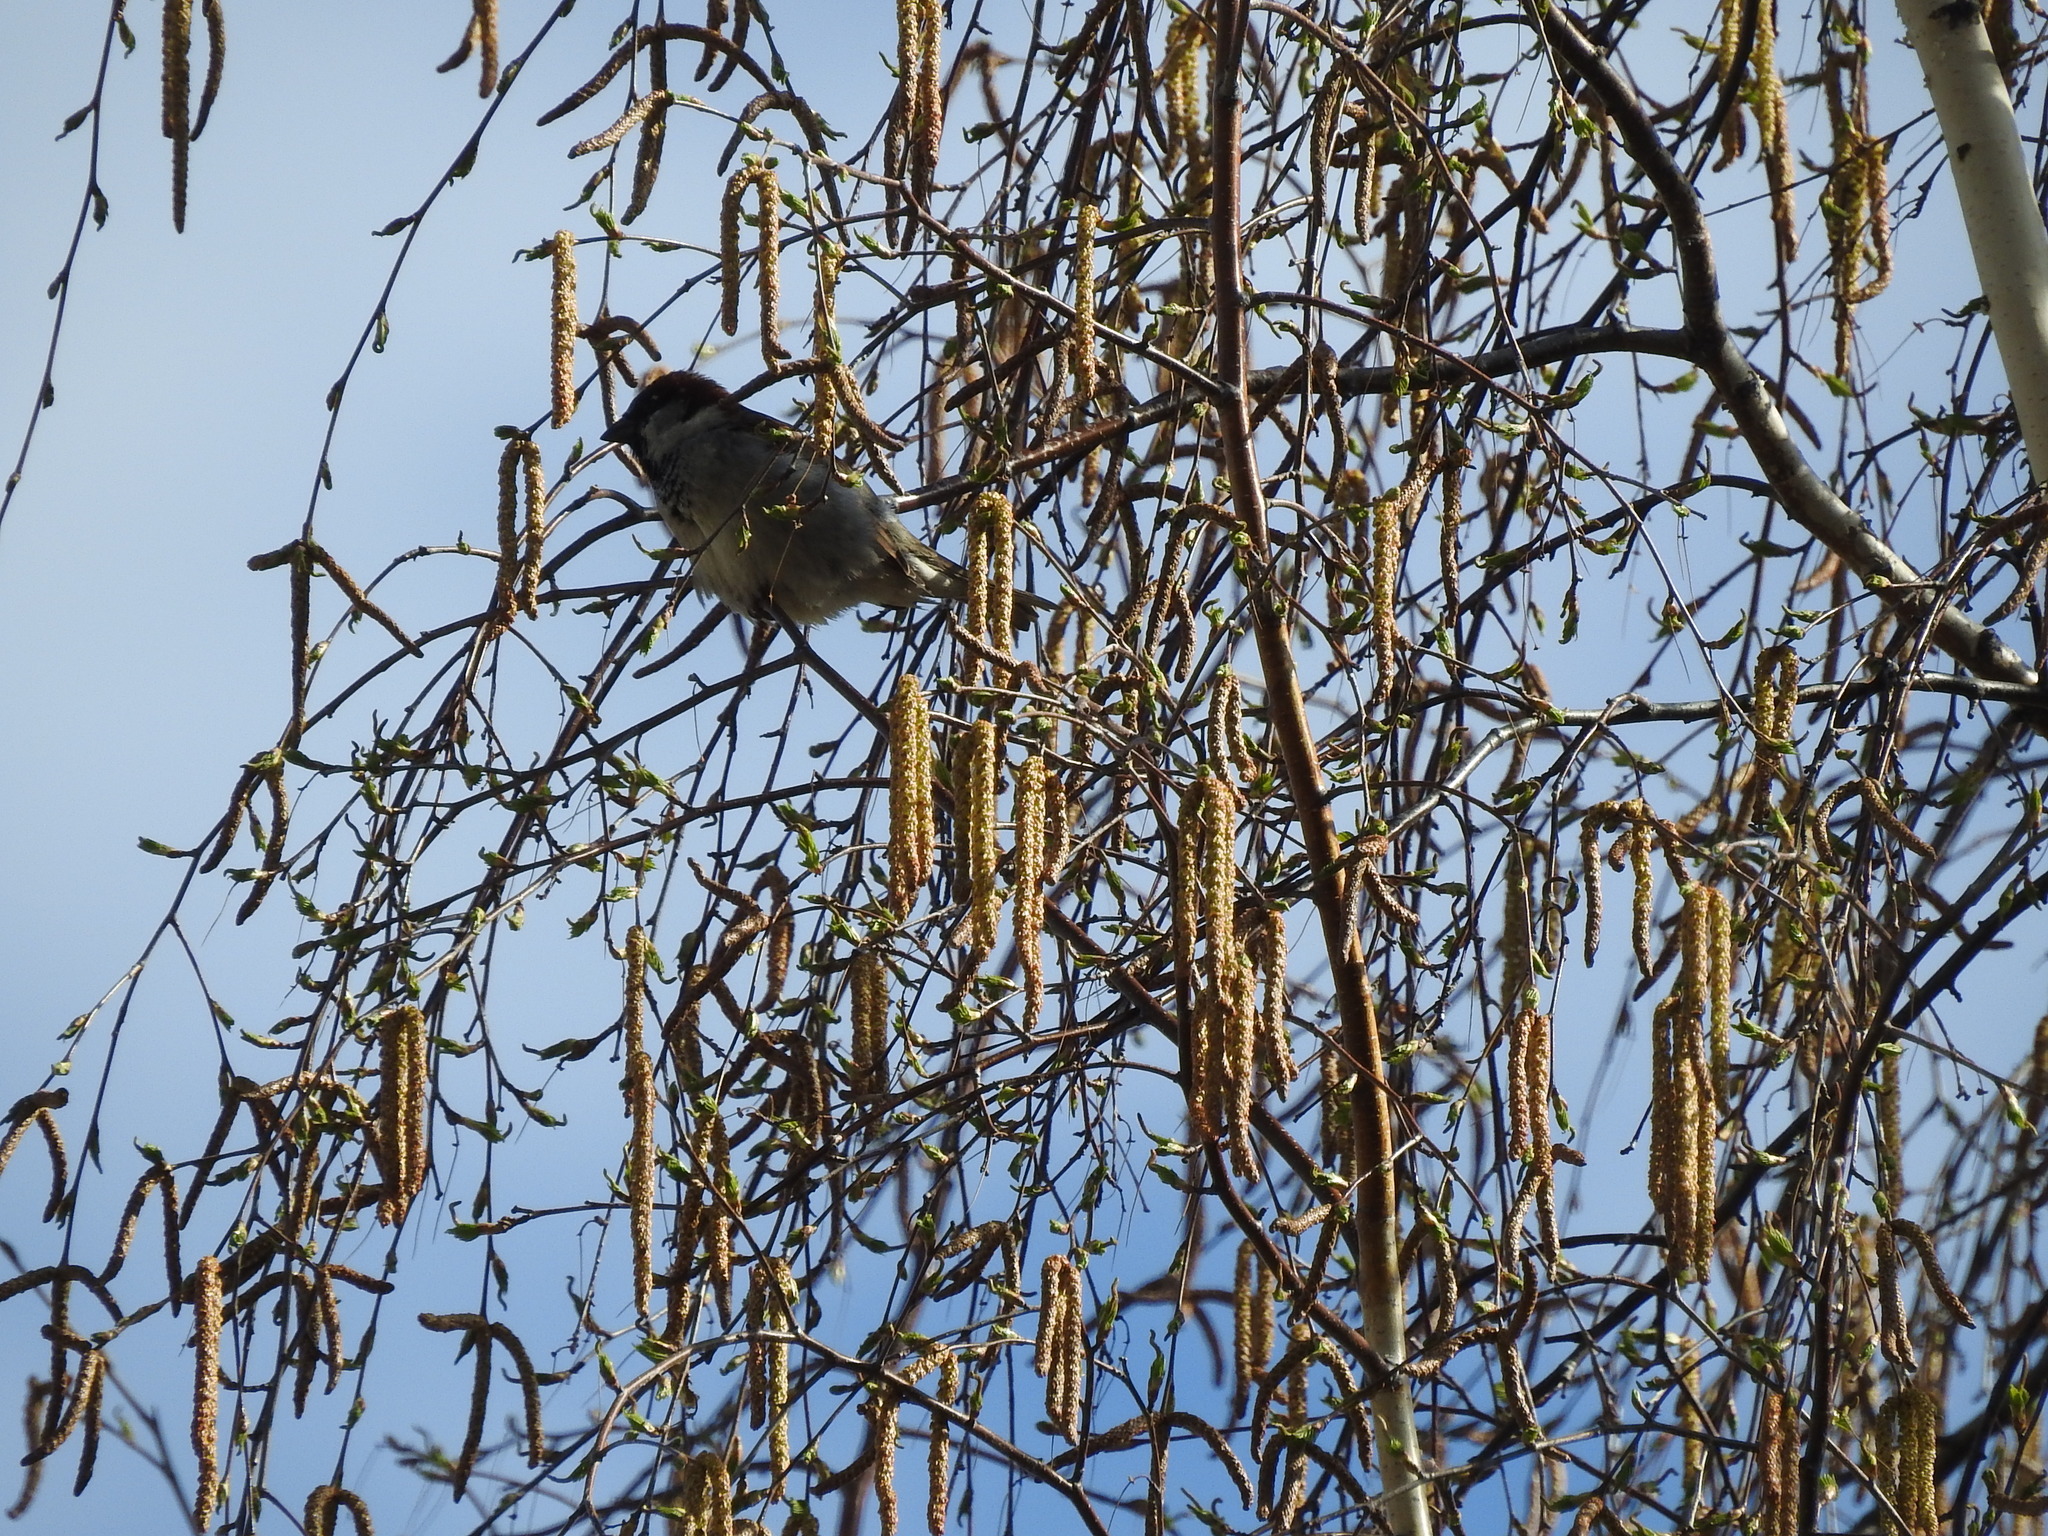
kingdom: Animalia
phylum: Chordata
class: Aves
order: Passeriformes
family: Passeridae
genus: Passer
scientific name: Passer domesticus
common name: House sparrow
